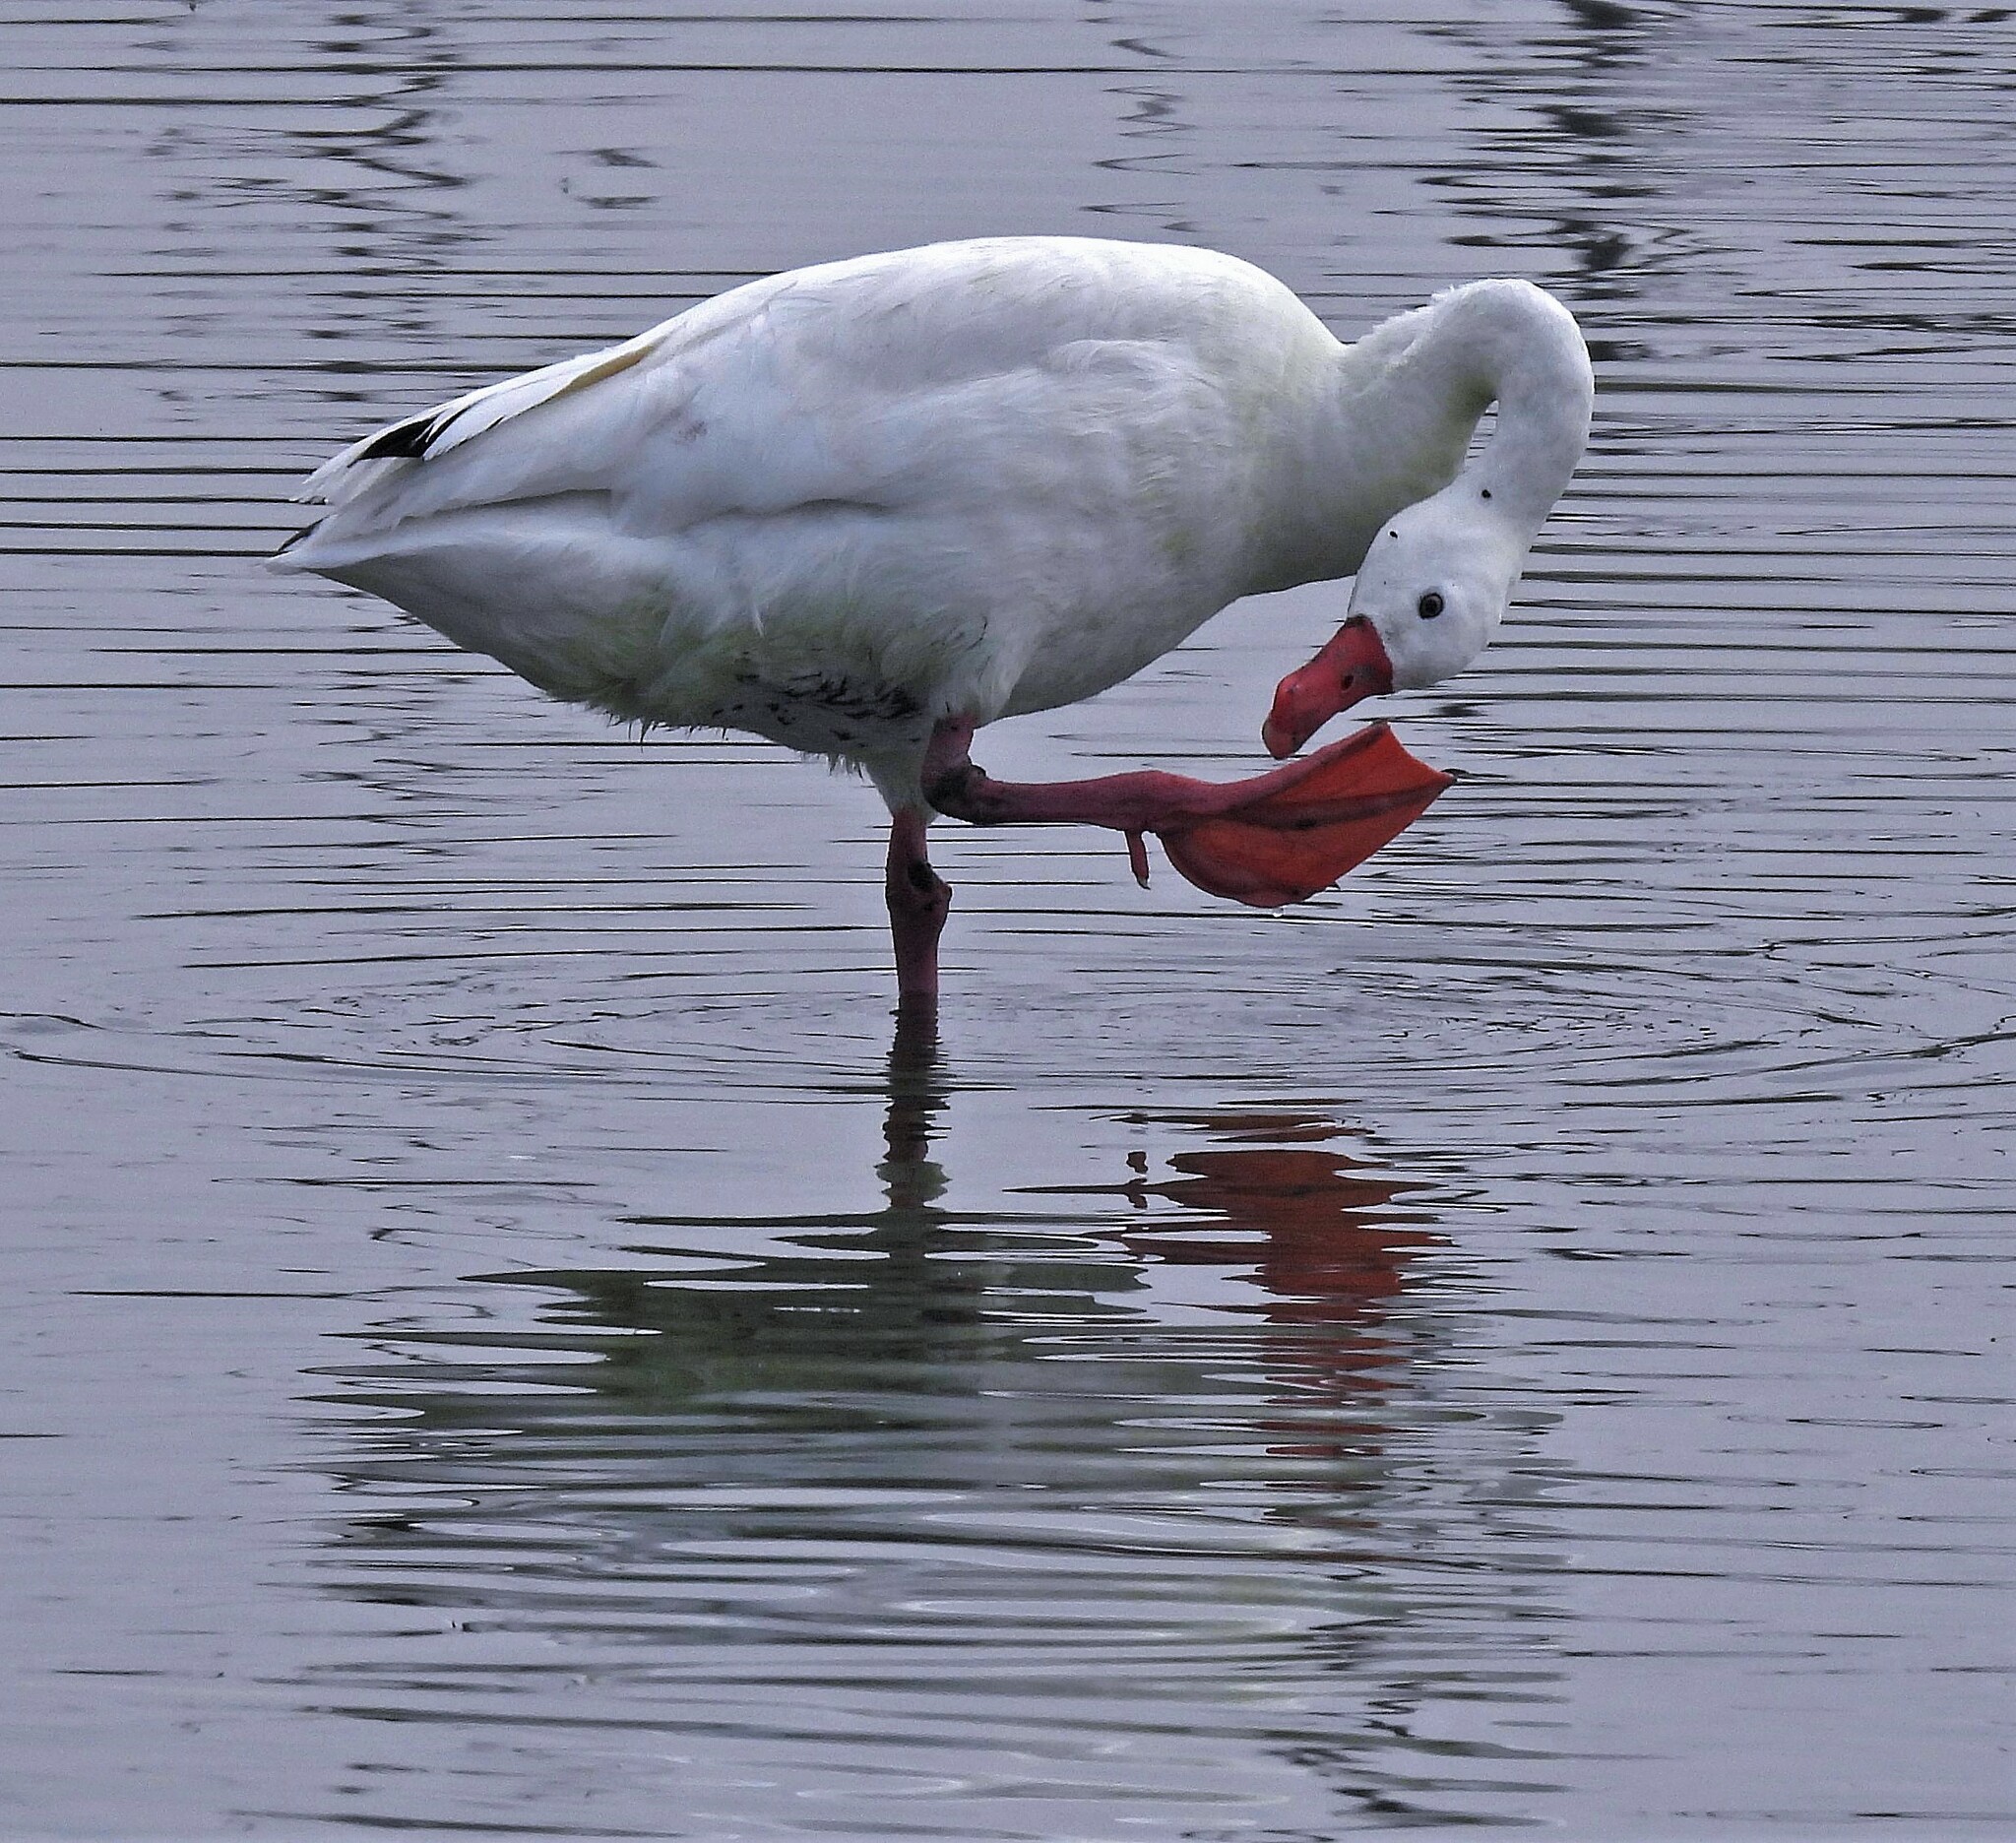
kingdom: Animalia
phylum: Chordata
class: Aves
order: Anseriformes
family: Anatidae
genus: Coscoroba
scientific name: Coscoroba coscoroba
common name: Coscoroba swan
